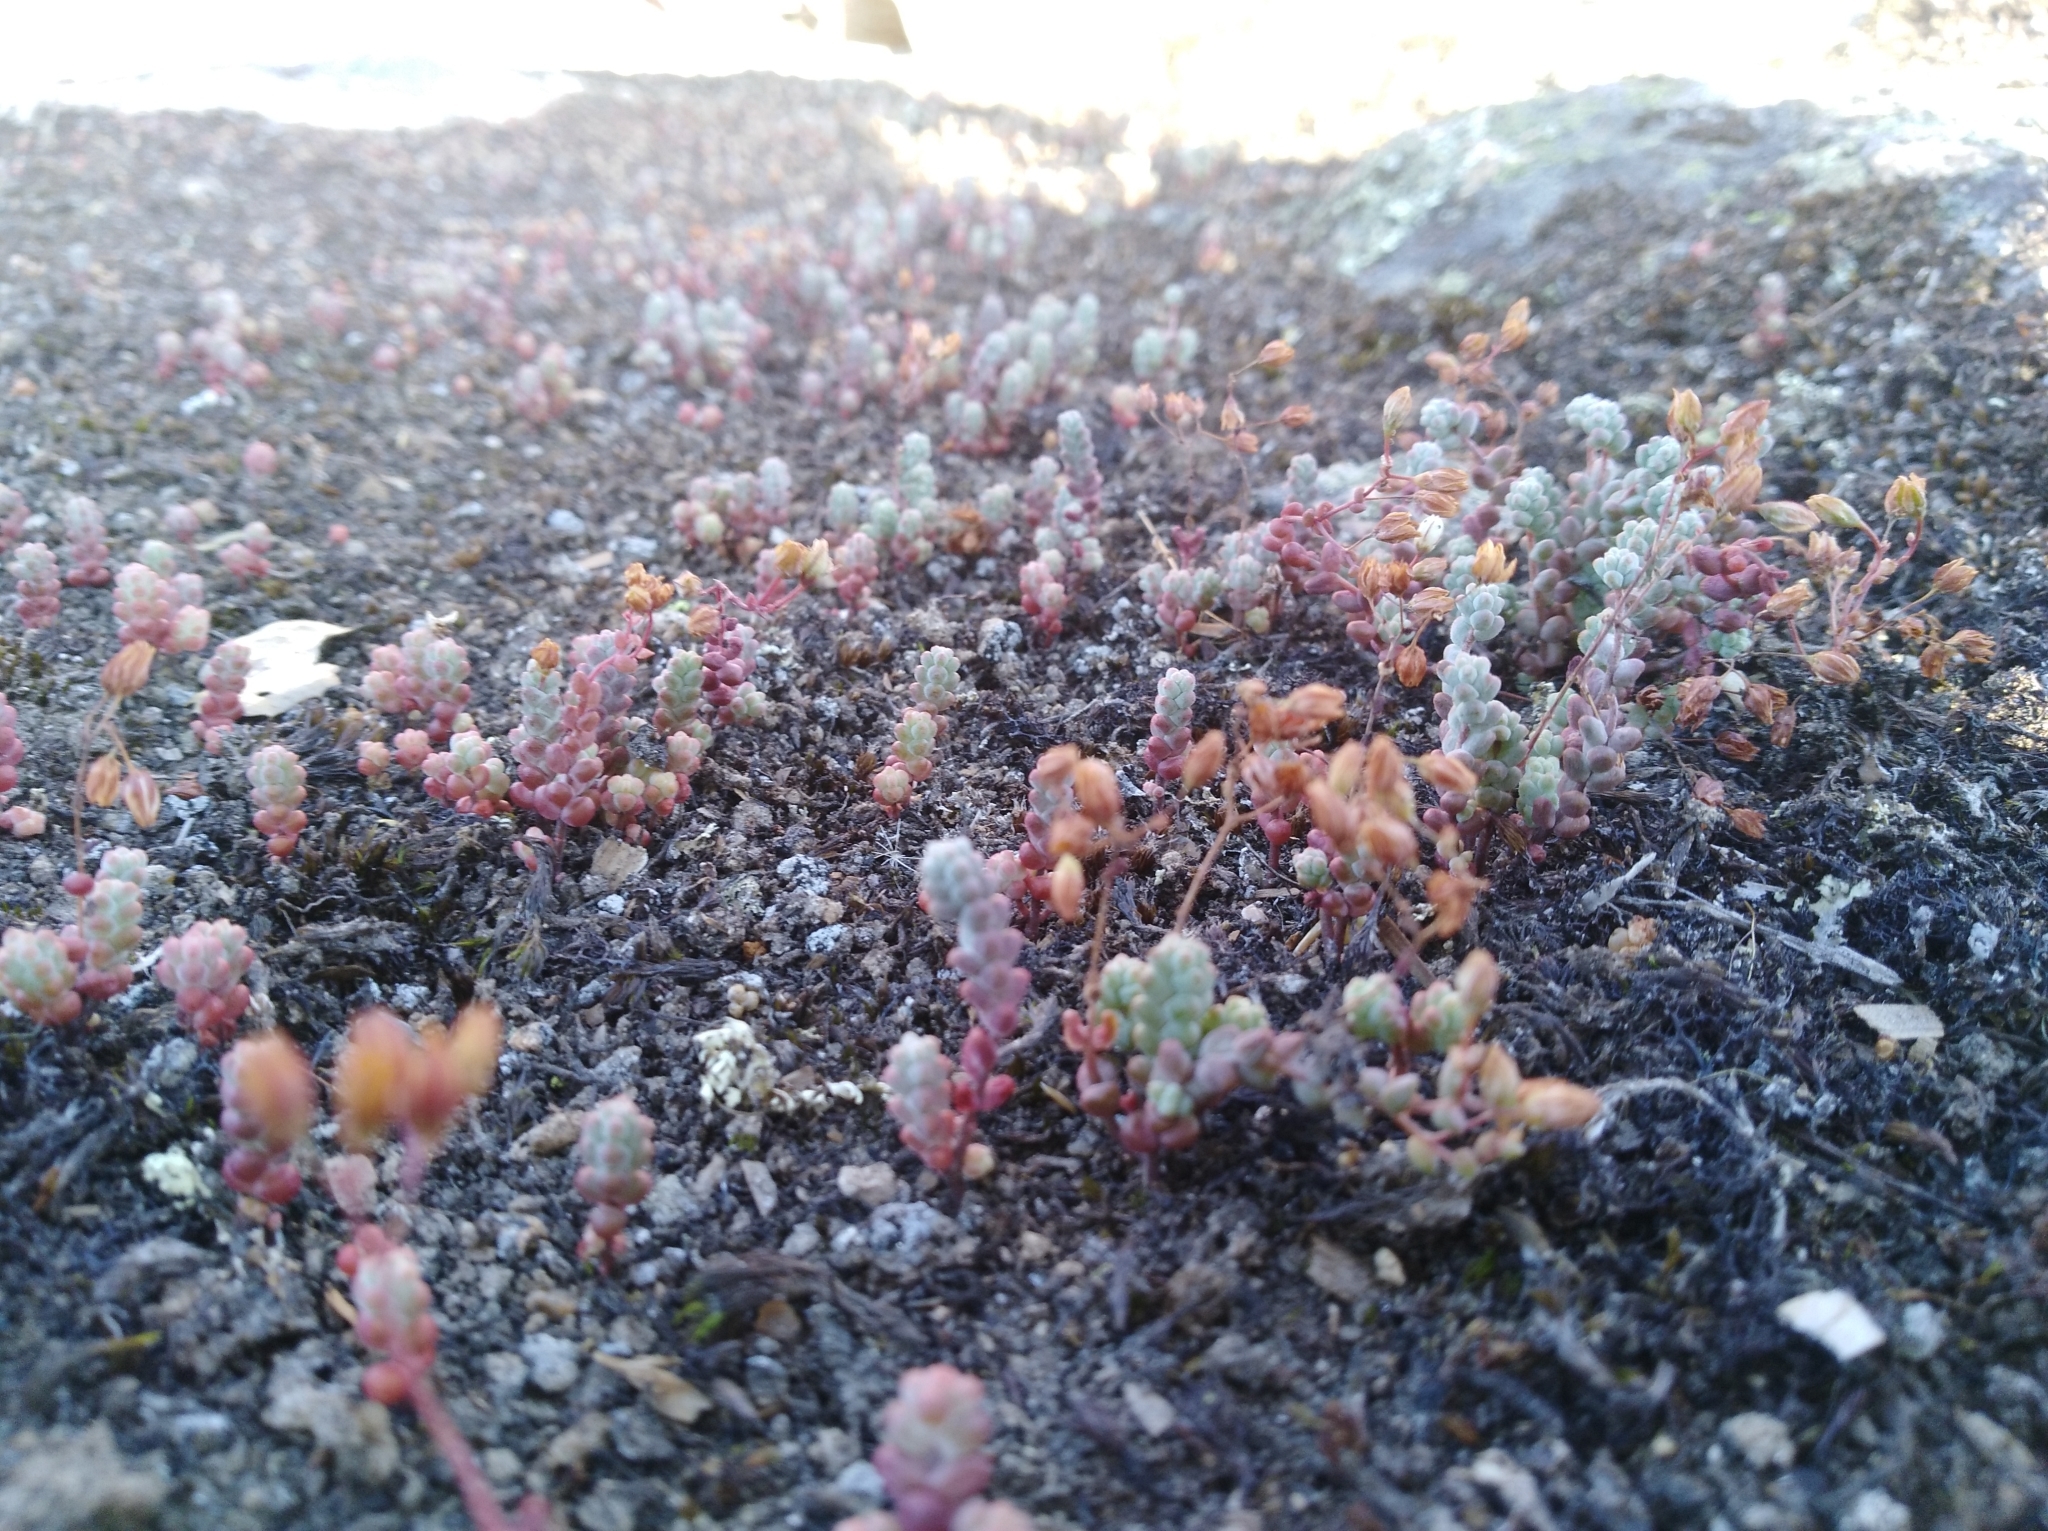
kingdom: Plantae
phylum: Tracheophyta
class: Magnoliopsida
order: Saxifragales
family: Crassulaceae
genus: Sedum
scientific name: Sedum brevifolium
